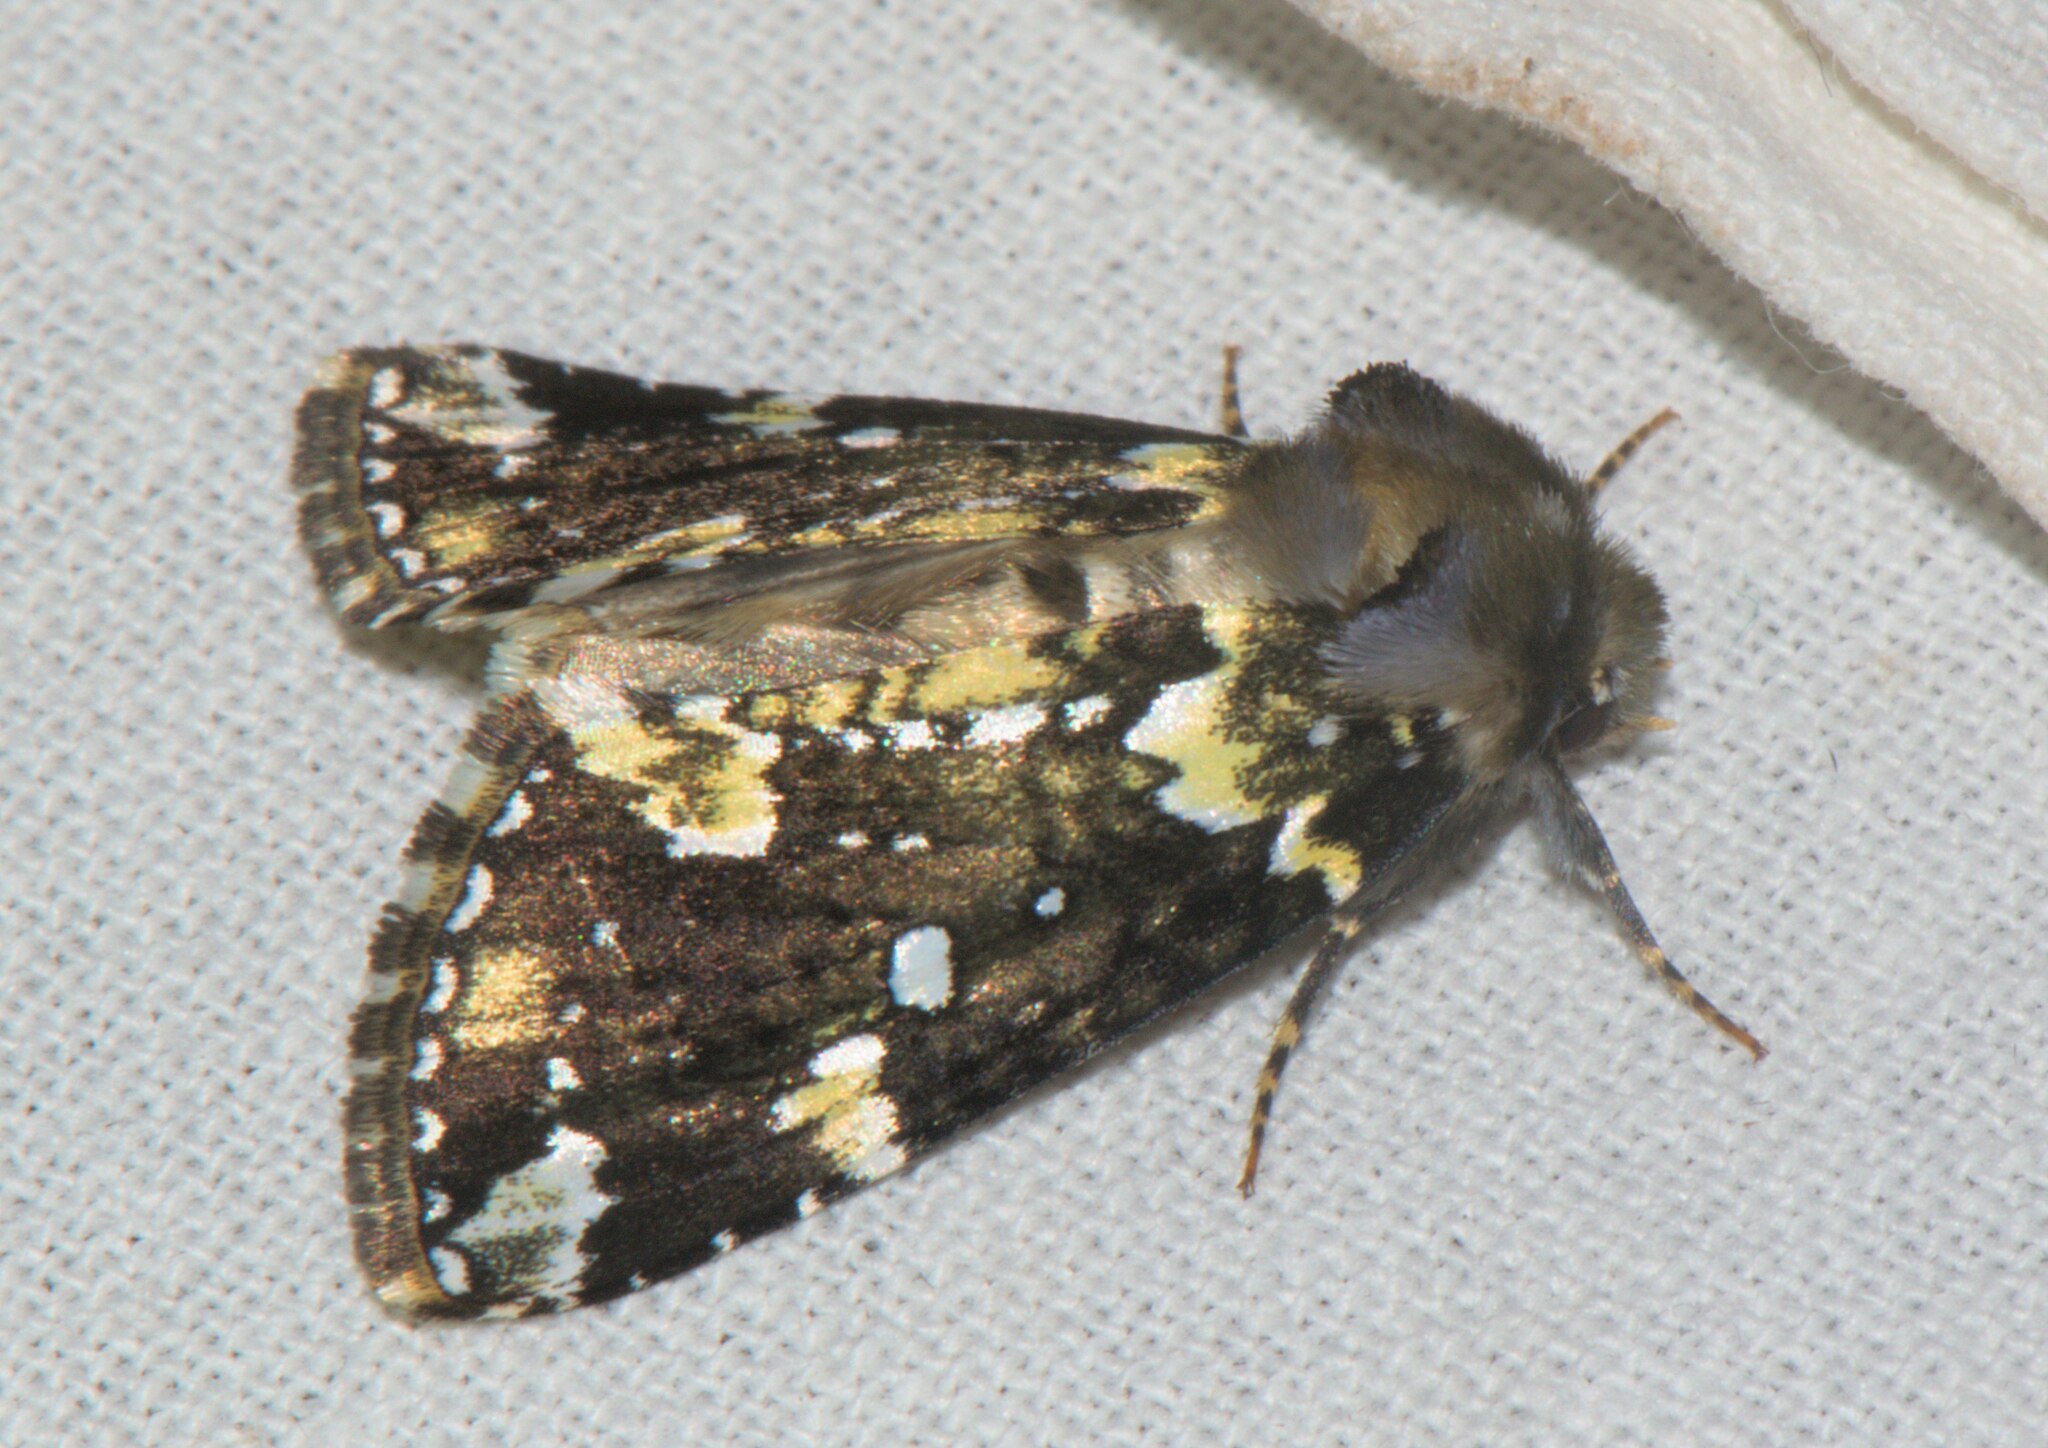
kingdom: Animalia
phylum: Arthropoda
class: Insecta
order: Lepidoptera
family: Drepanidae
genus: Gaurena
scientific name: Gaurena florens
